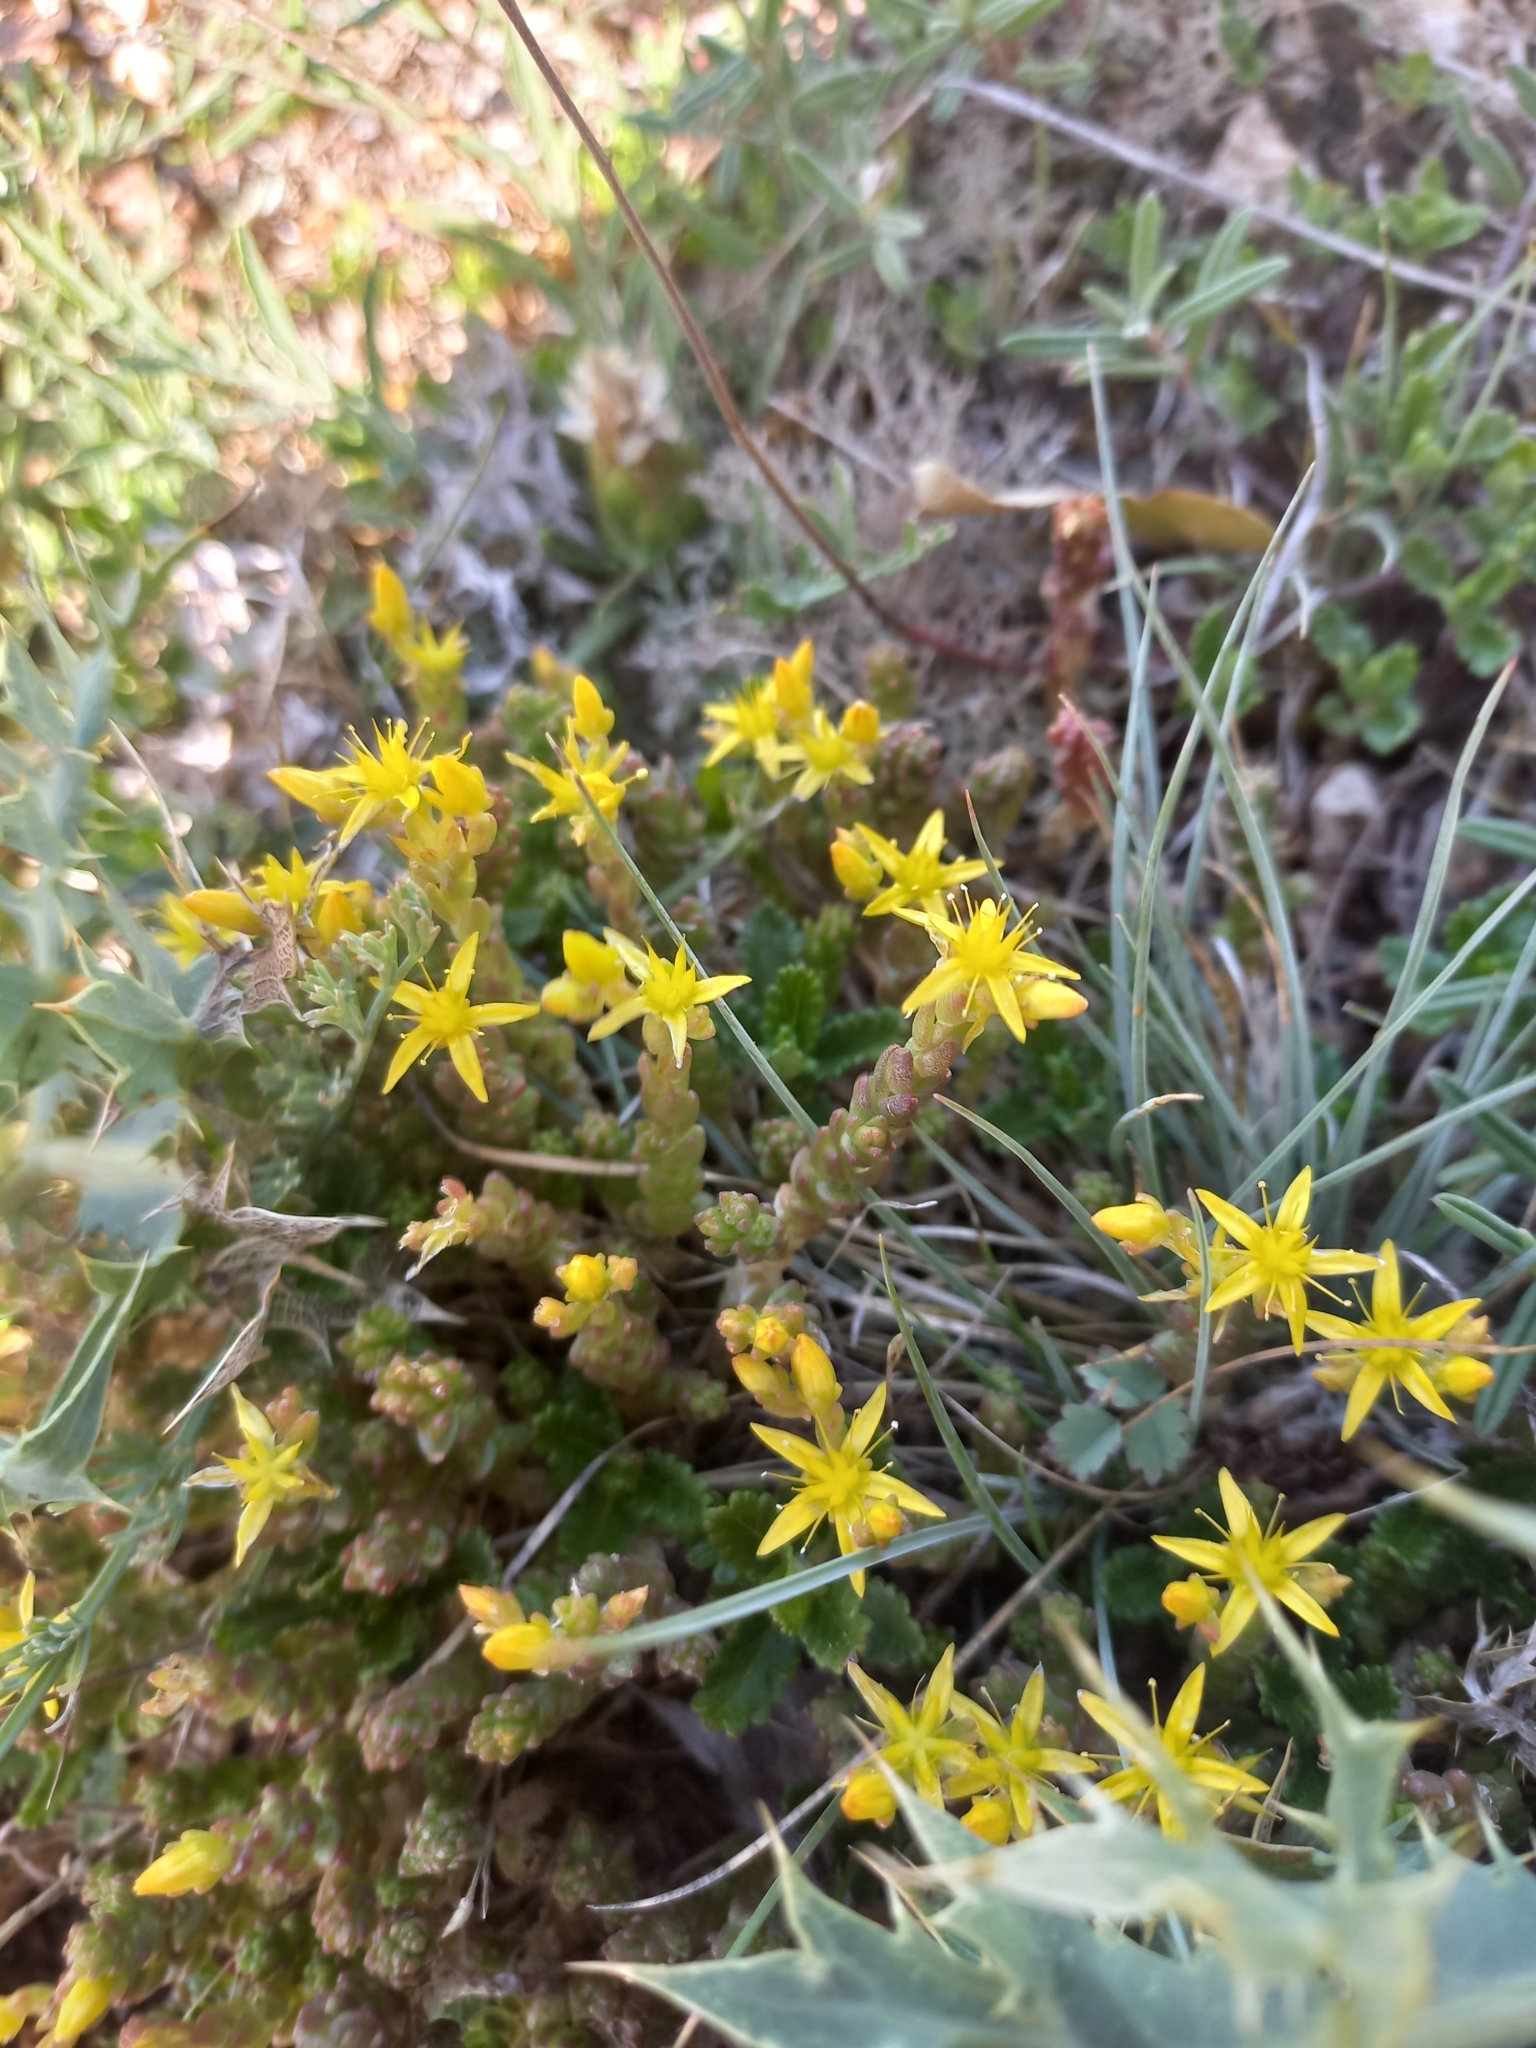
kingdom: Plantae
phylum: Tracheophyta
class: Magnoliopsida
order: Saxifragales
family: Crassulaceae
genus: Sedum
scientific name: Sedum acre
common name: Biting stonecrop
